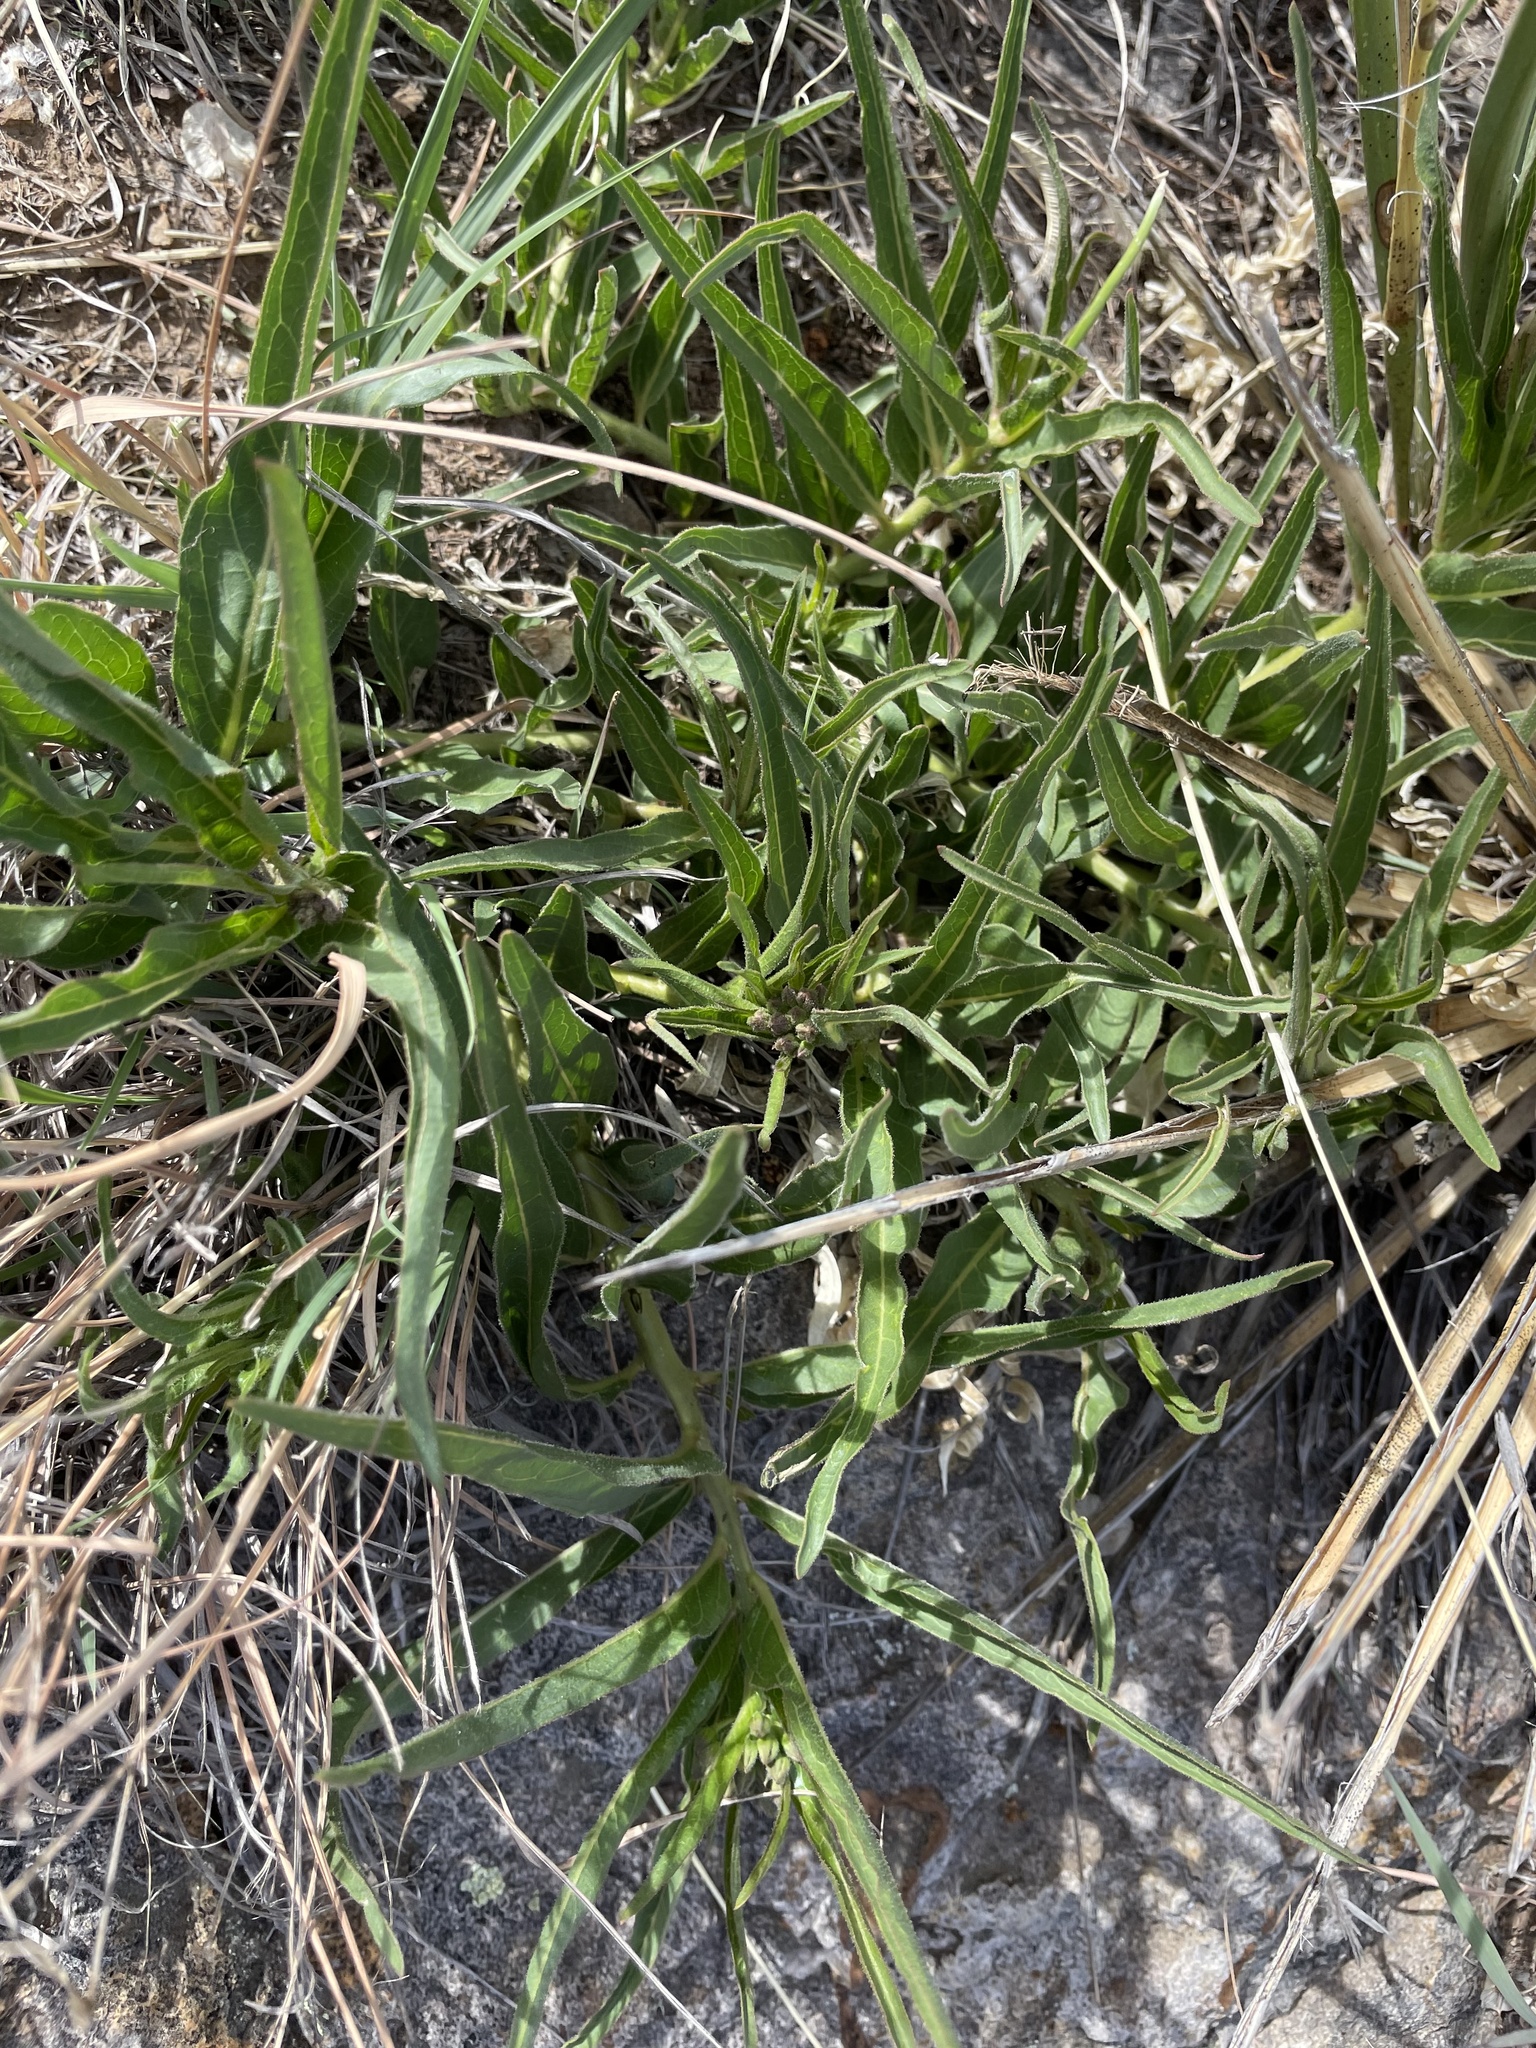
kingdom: Plantae
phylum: Tracheophyta
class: Magnoliopsida
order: Gentianales
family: Apocynaceae
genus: Asclepias
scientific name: Asclepias asperula
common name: Antelope horns
